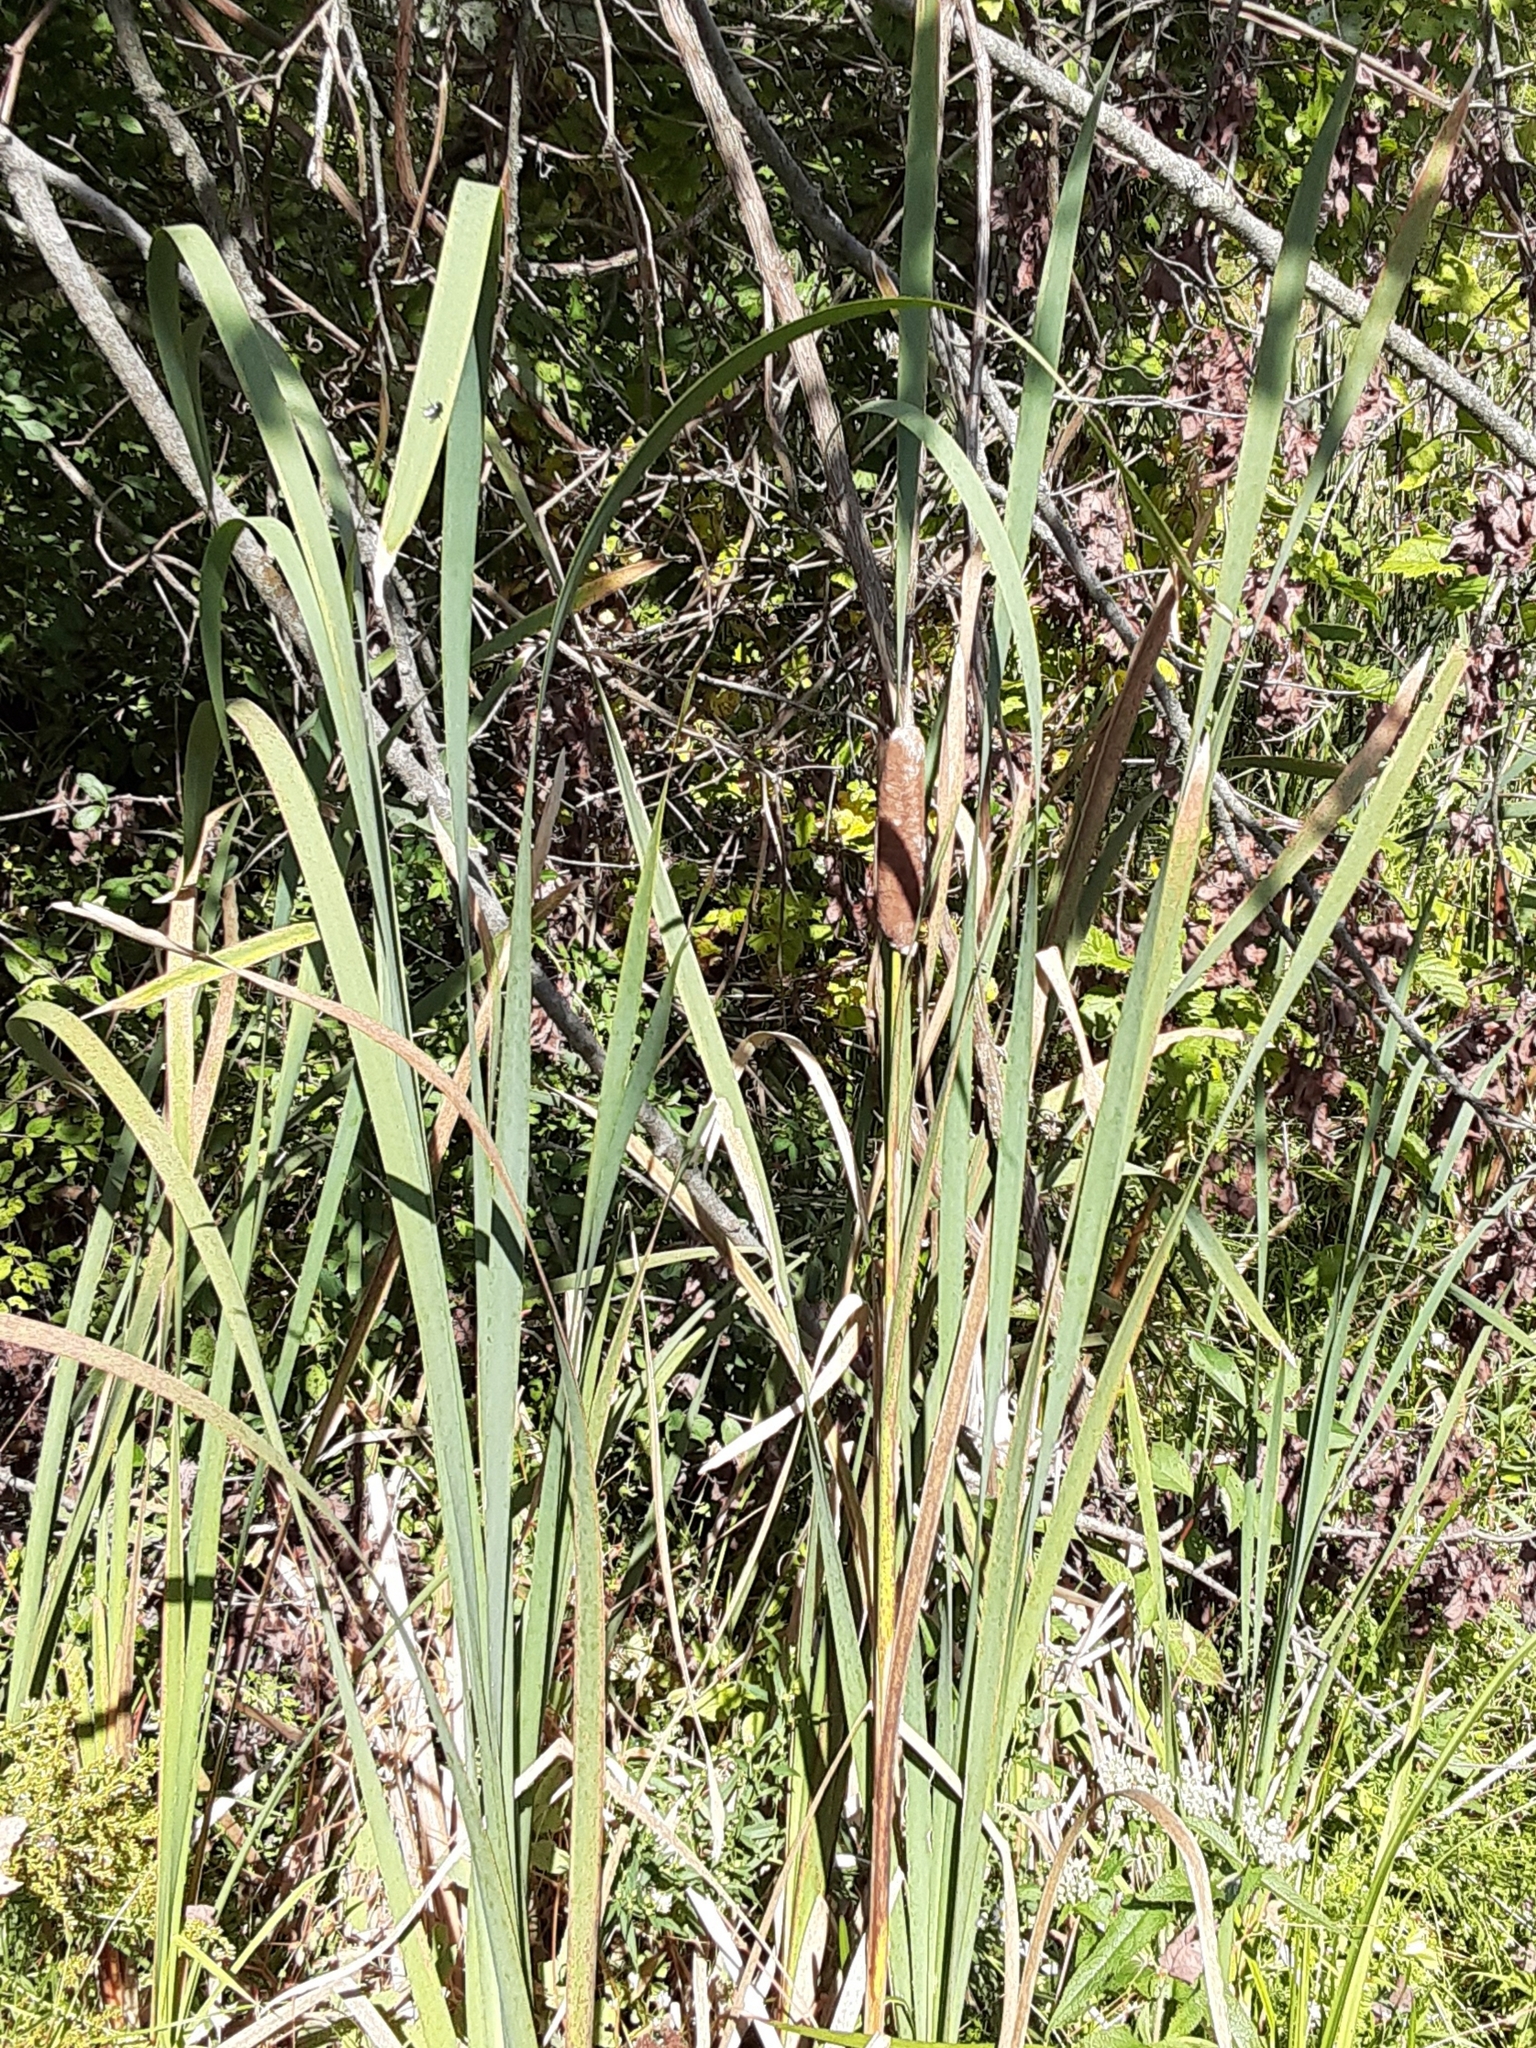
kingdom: Plantae
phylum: Tracheophyta
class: Liliopsida
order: Poales
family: Typhaceae
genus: Typha
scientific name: Typha latifolia
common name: Broadleaf cattail
